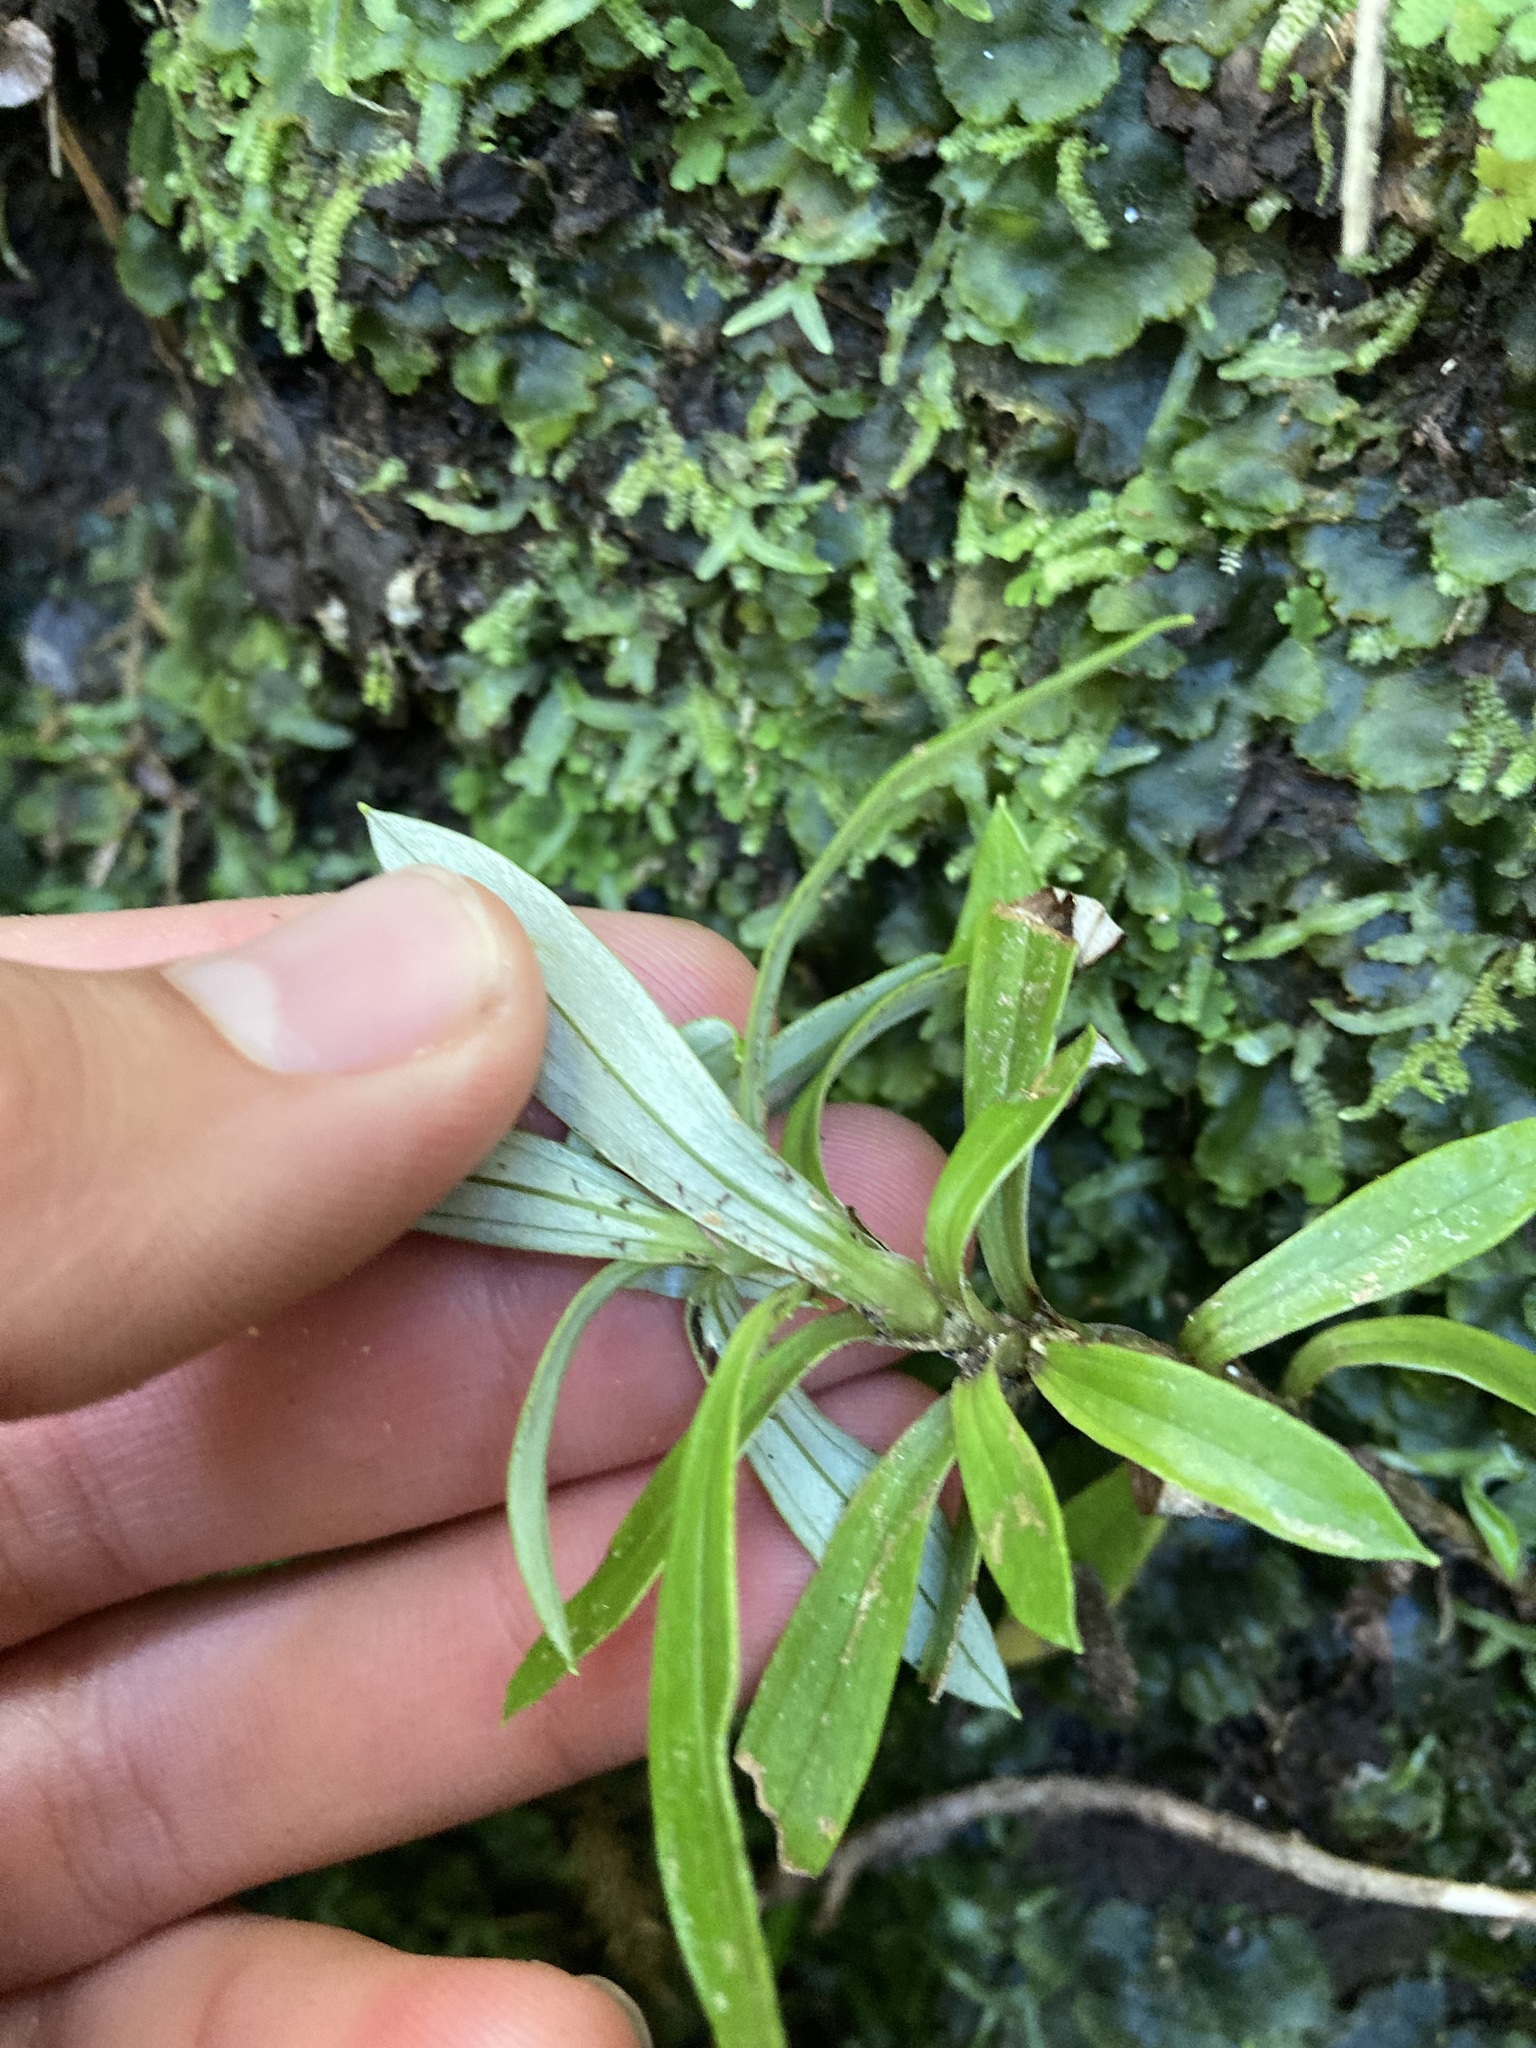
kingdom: Plantae
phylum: Tracheophyta
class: Magnoliopsida
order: Asterales
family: Asteraceae
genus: Anaphalioides
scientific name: Anaphalioides trinervis
